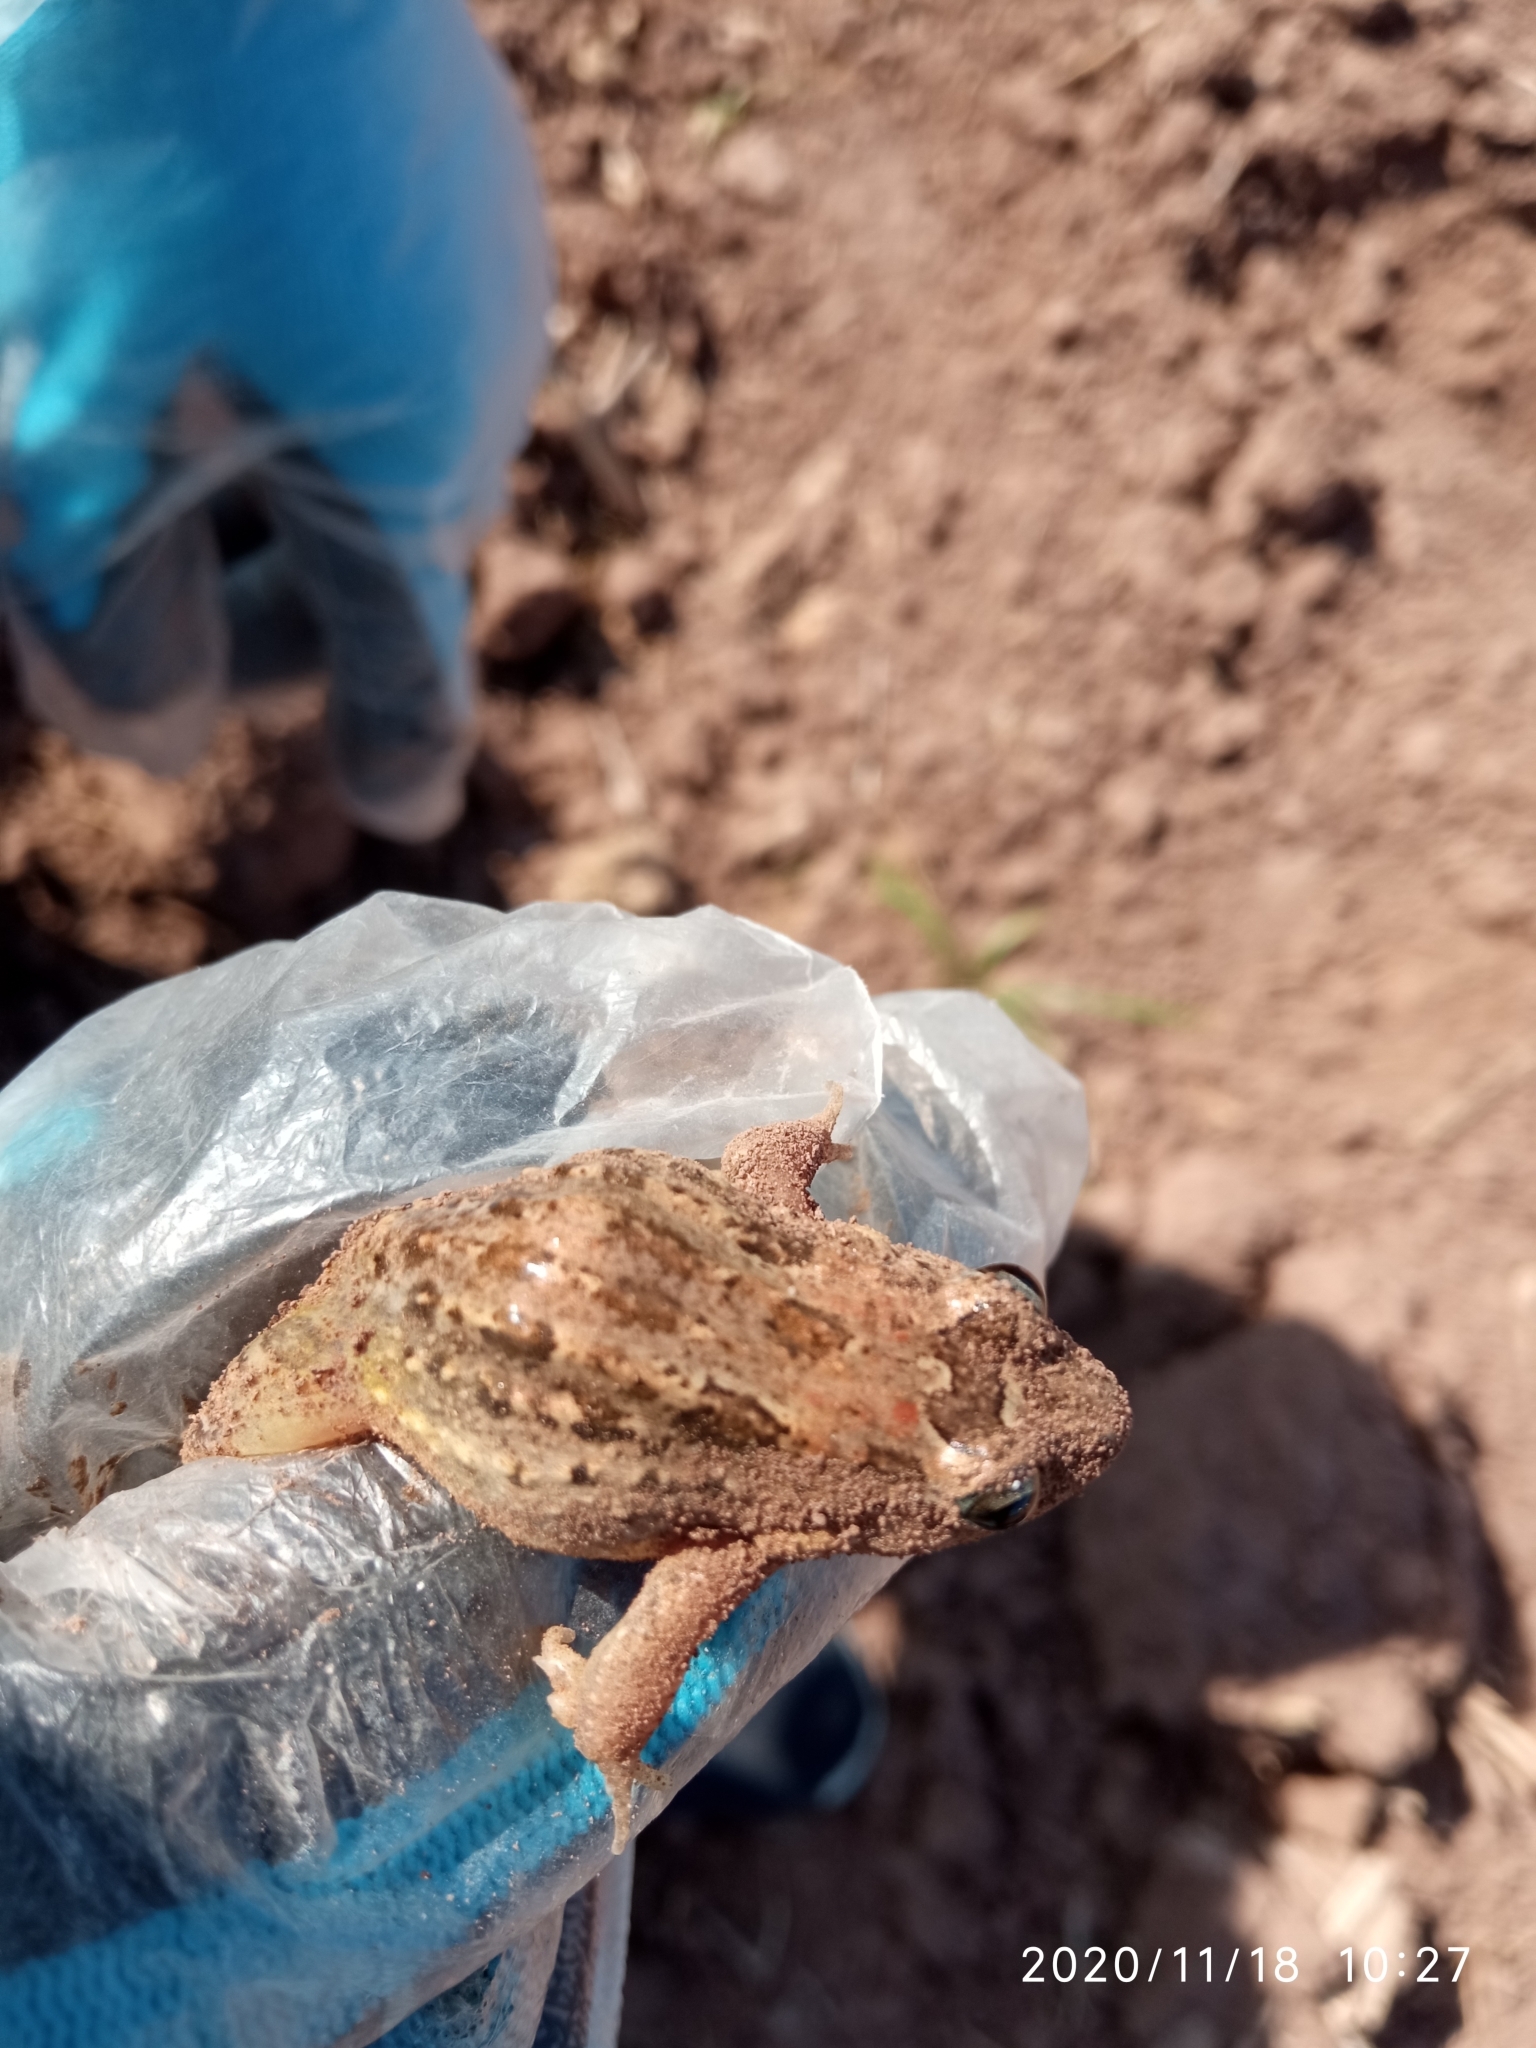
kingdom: Animalia
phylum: Chordata
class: Amphibia
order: Anura
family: Leptodactylidae
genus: Leptodactylus
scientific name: Leptodactylus melanonotus
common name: Fringe-toed foamfrog
